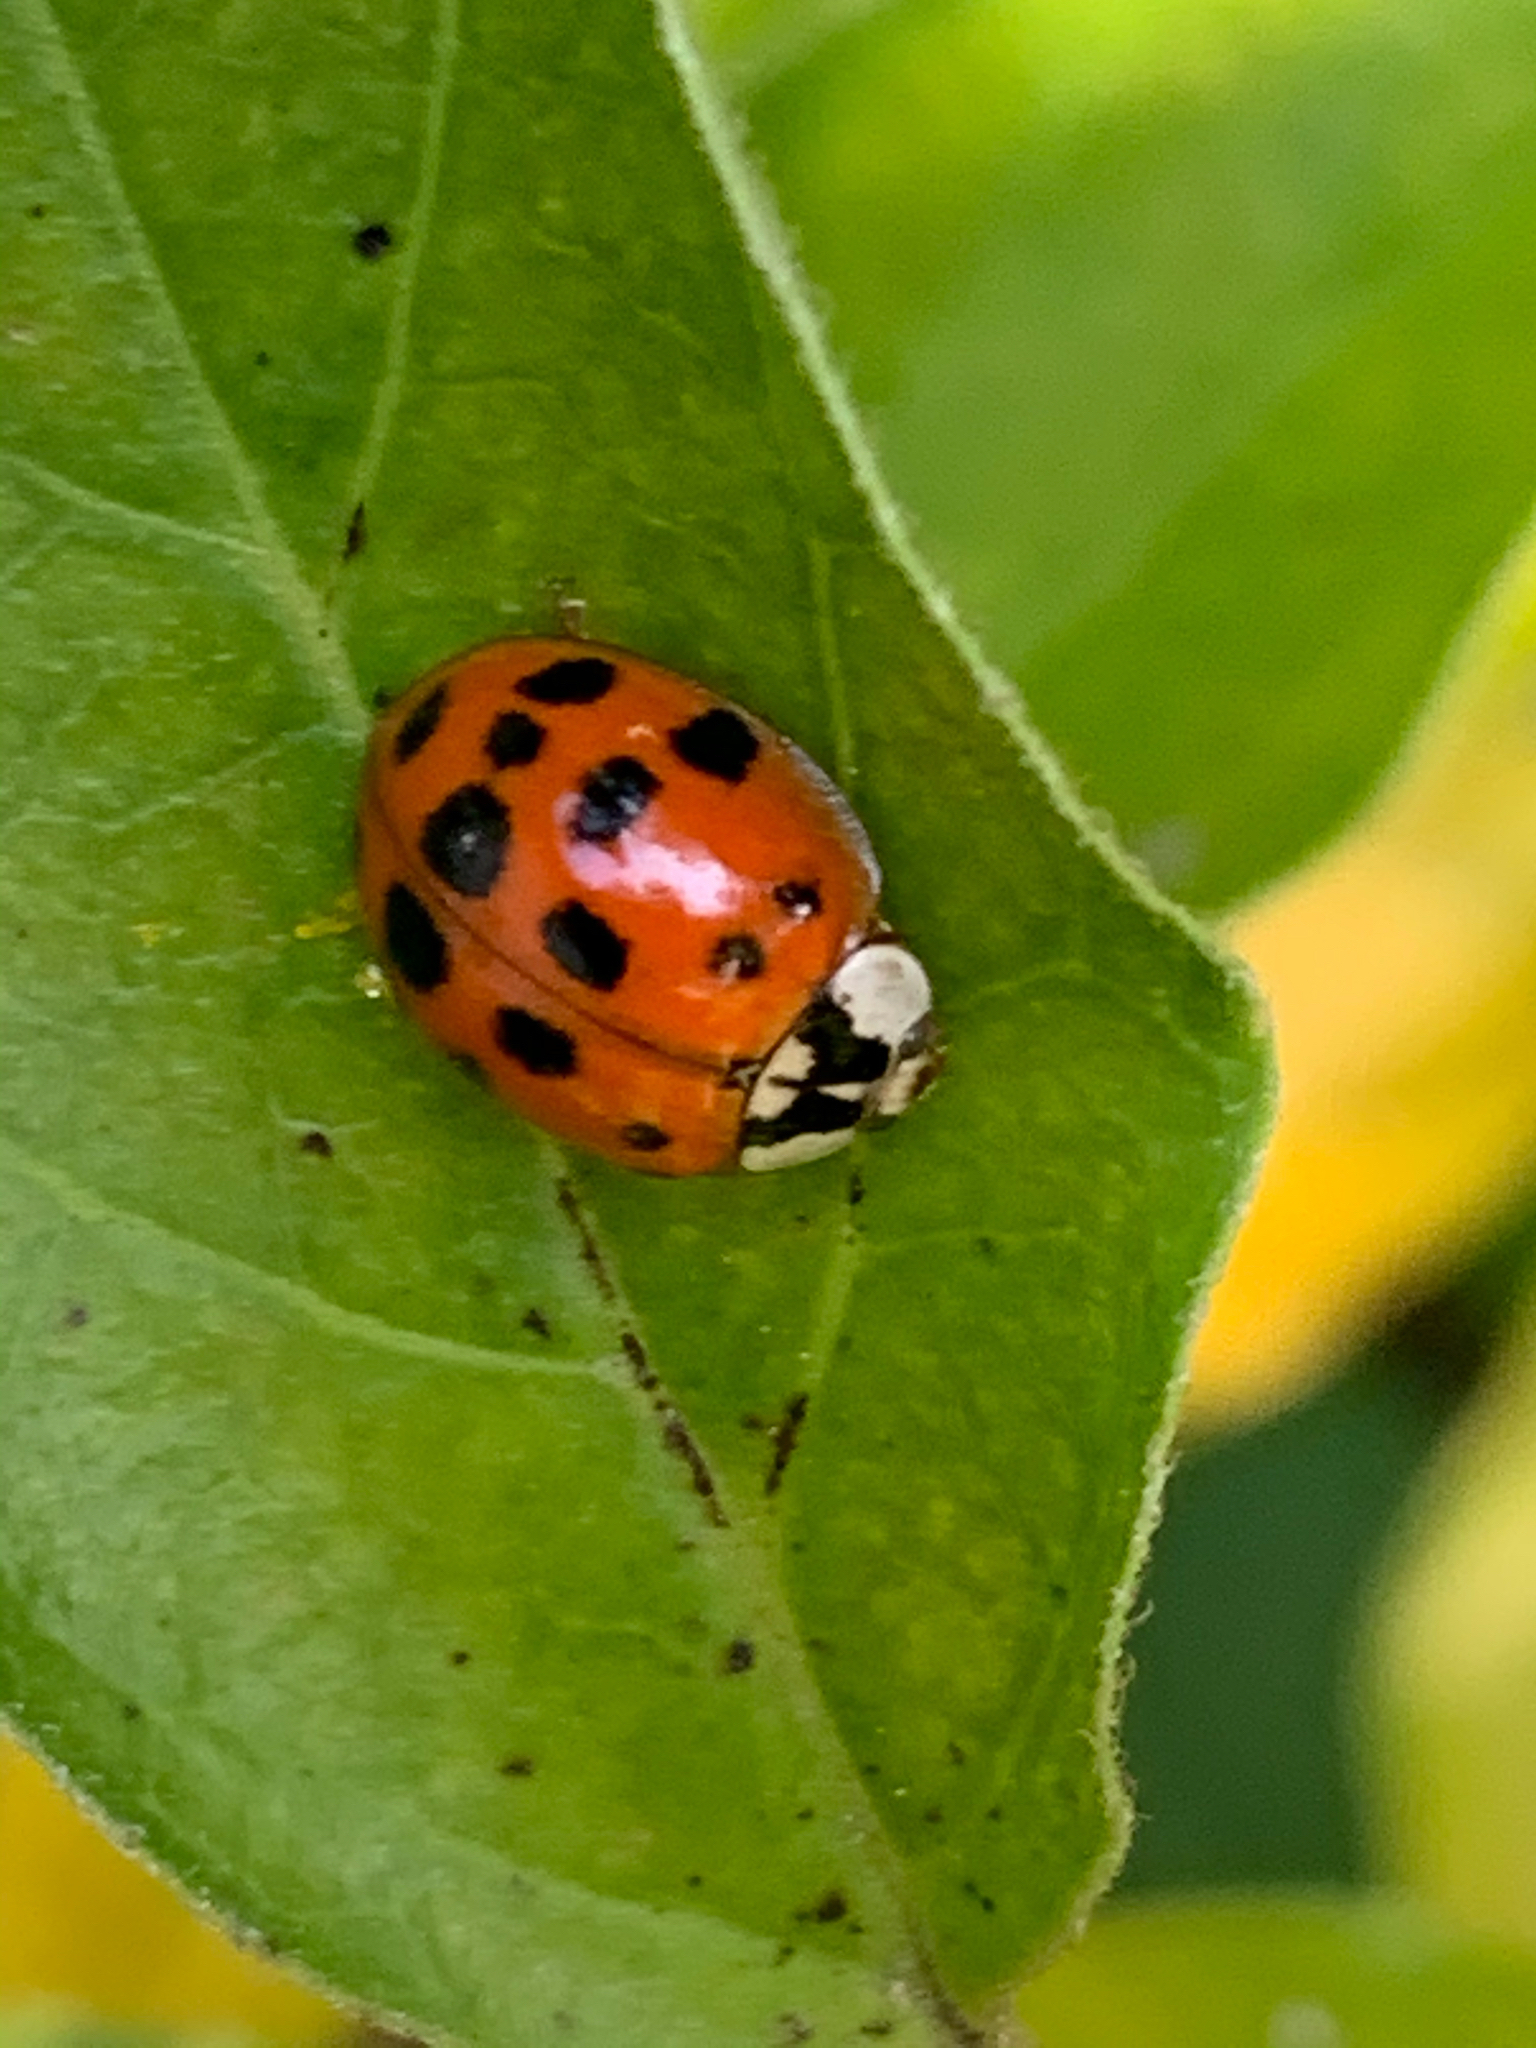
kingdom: Animalia
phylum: Arthropoda
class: Insecta
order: Coleoptera
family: Coccinellidae
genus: Harmonia
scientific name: Harmonia axyridis
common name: Harlequin ladybird
